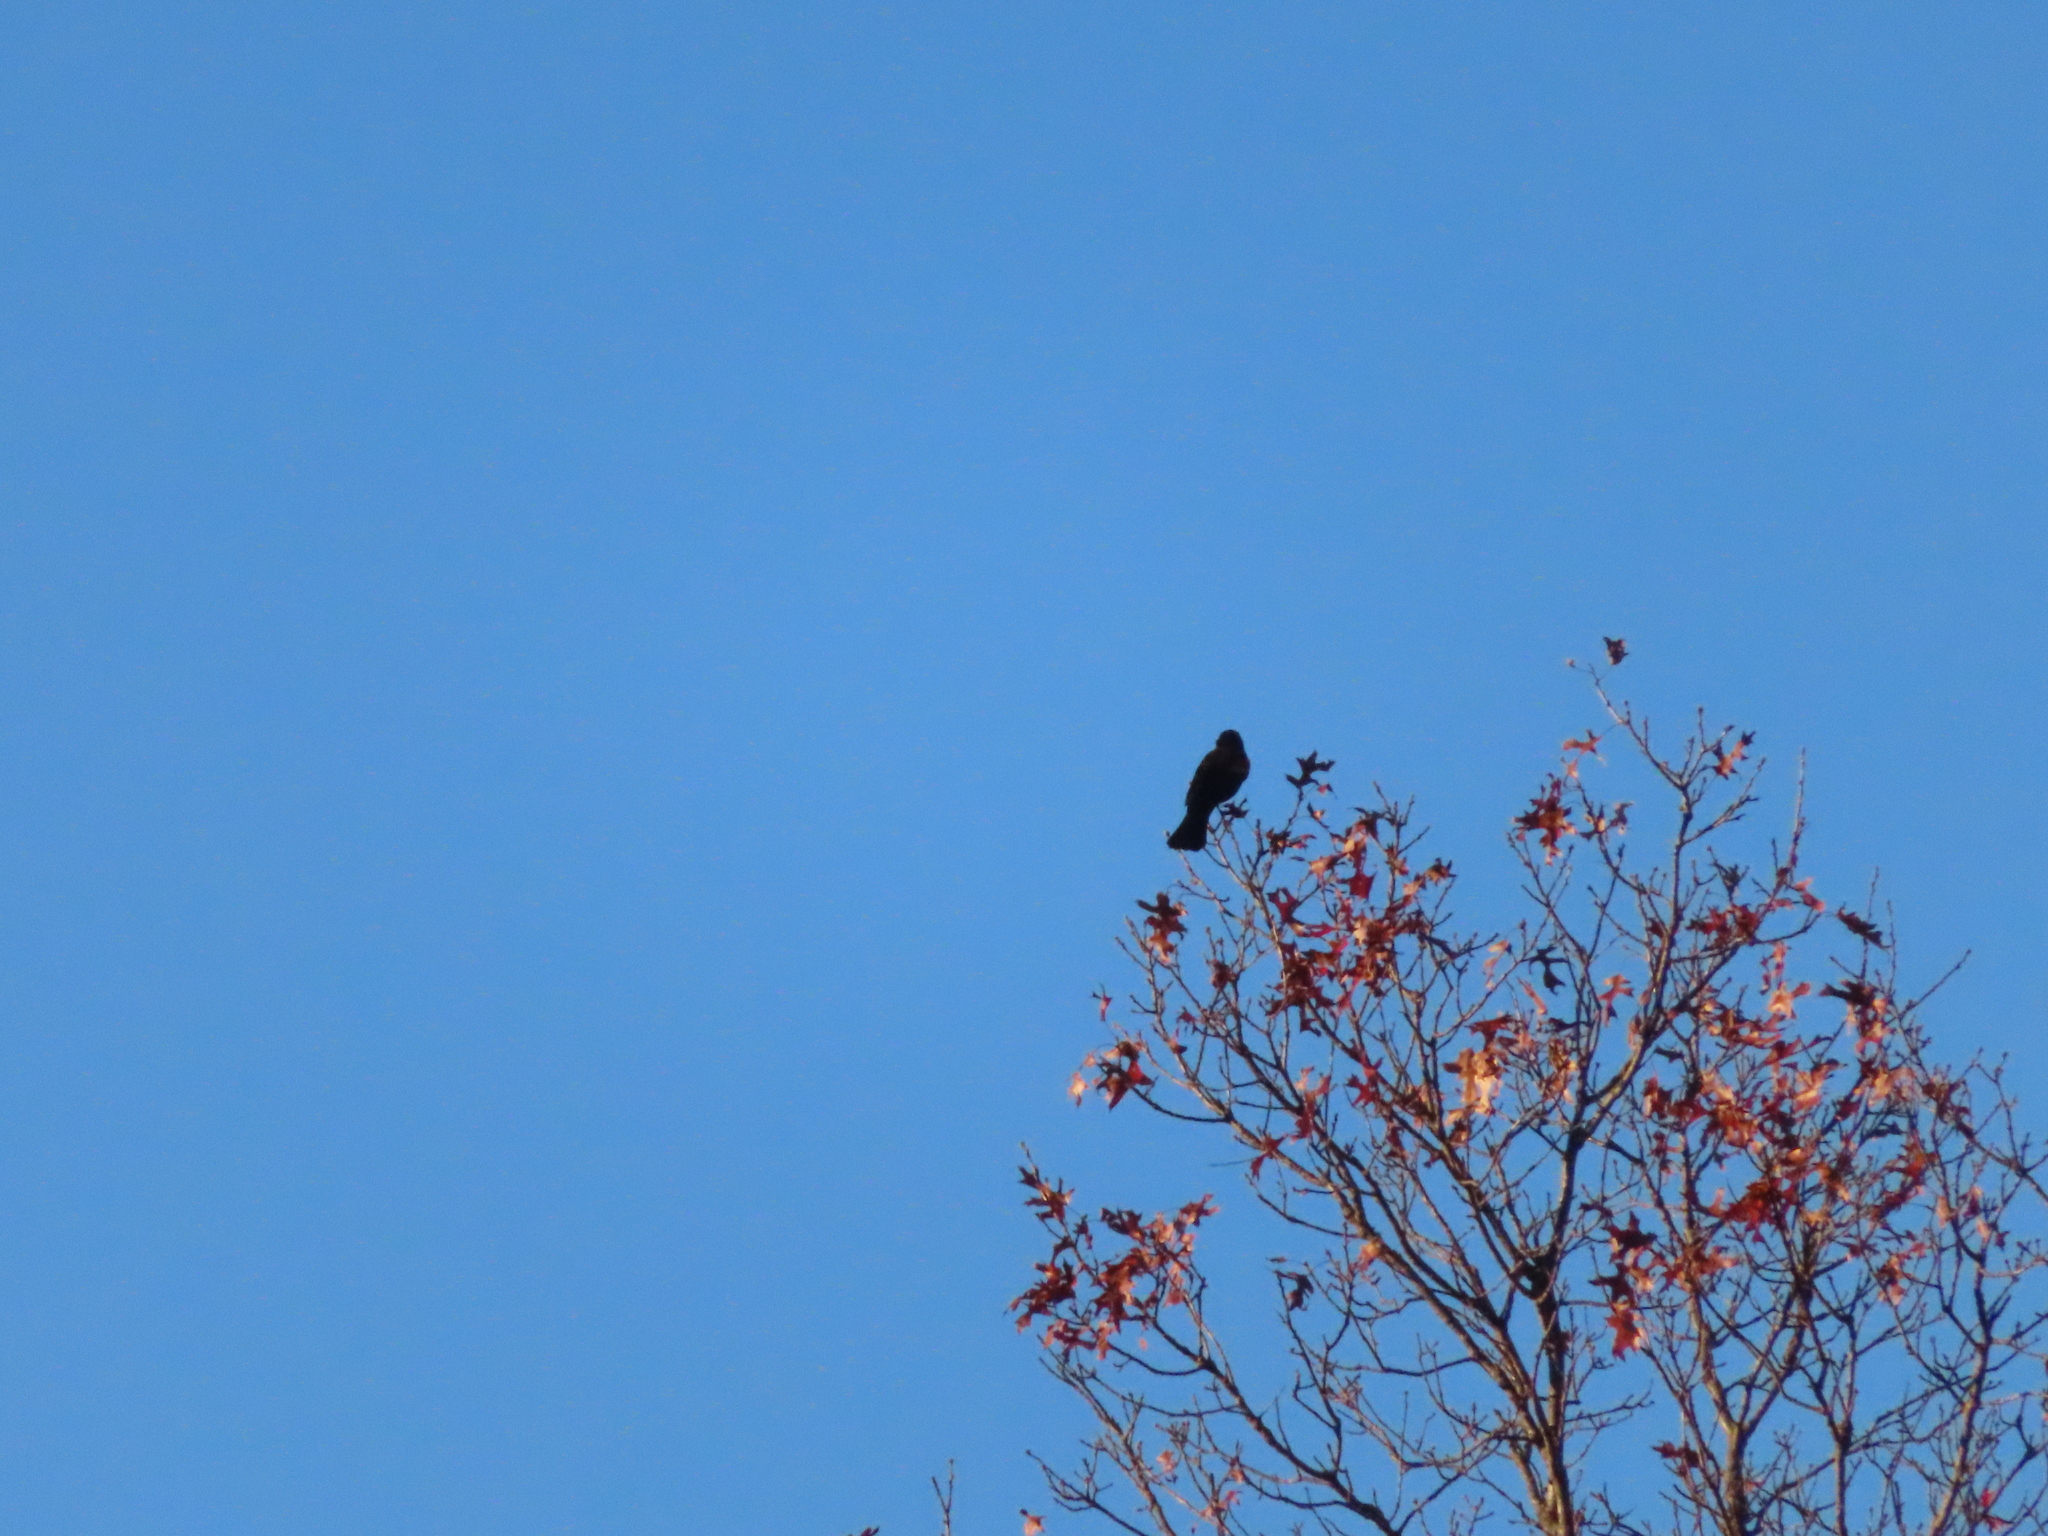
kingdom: Animalia
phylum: Chordata
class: Aves
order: Passeriformes
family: Corvidae
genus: Corvus
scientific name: Corvus brachyrhynchos
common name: American crow
